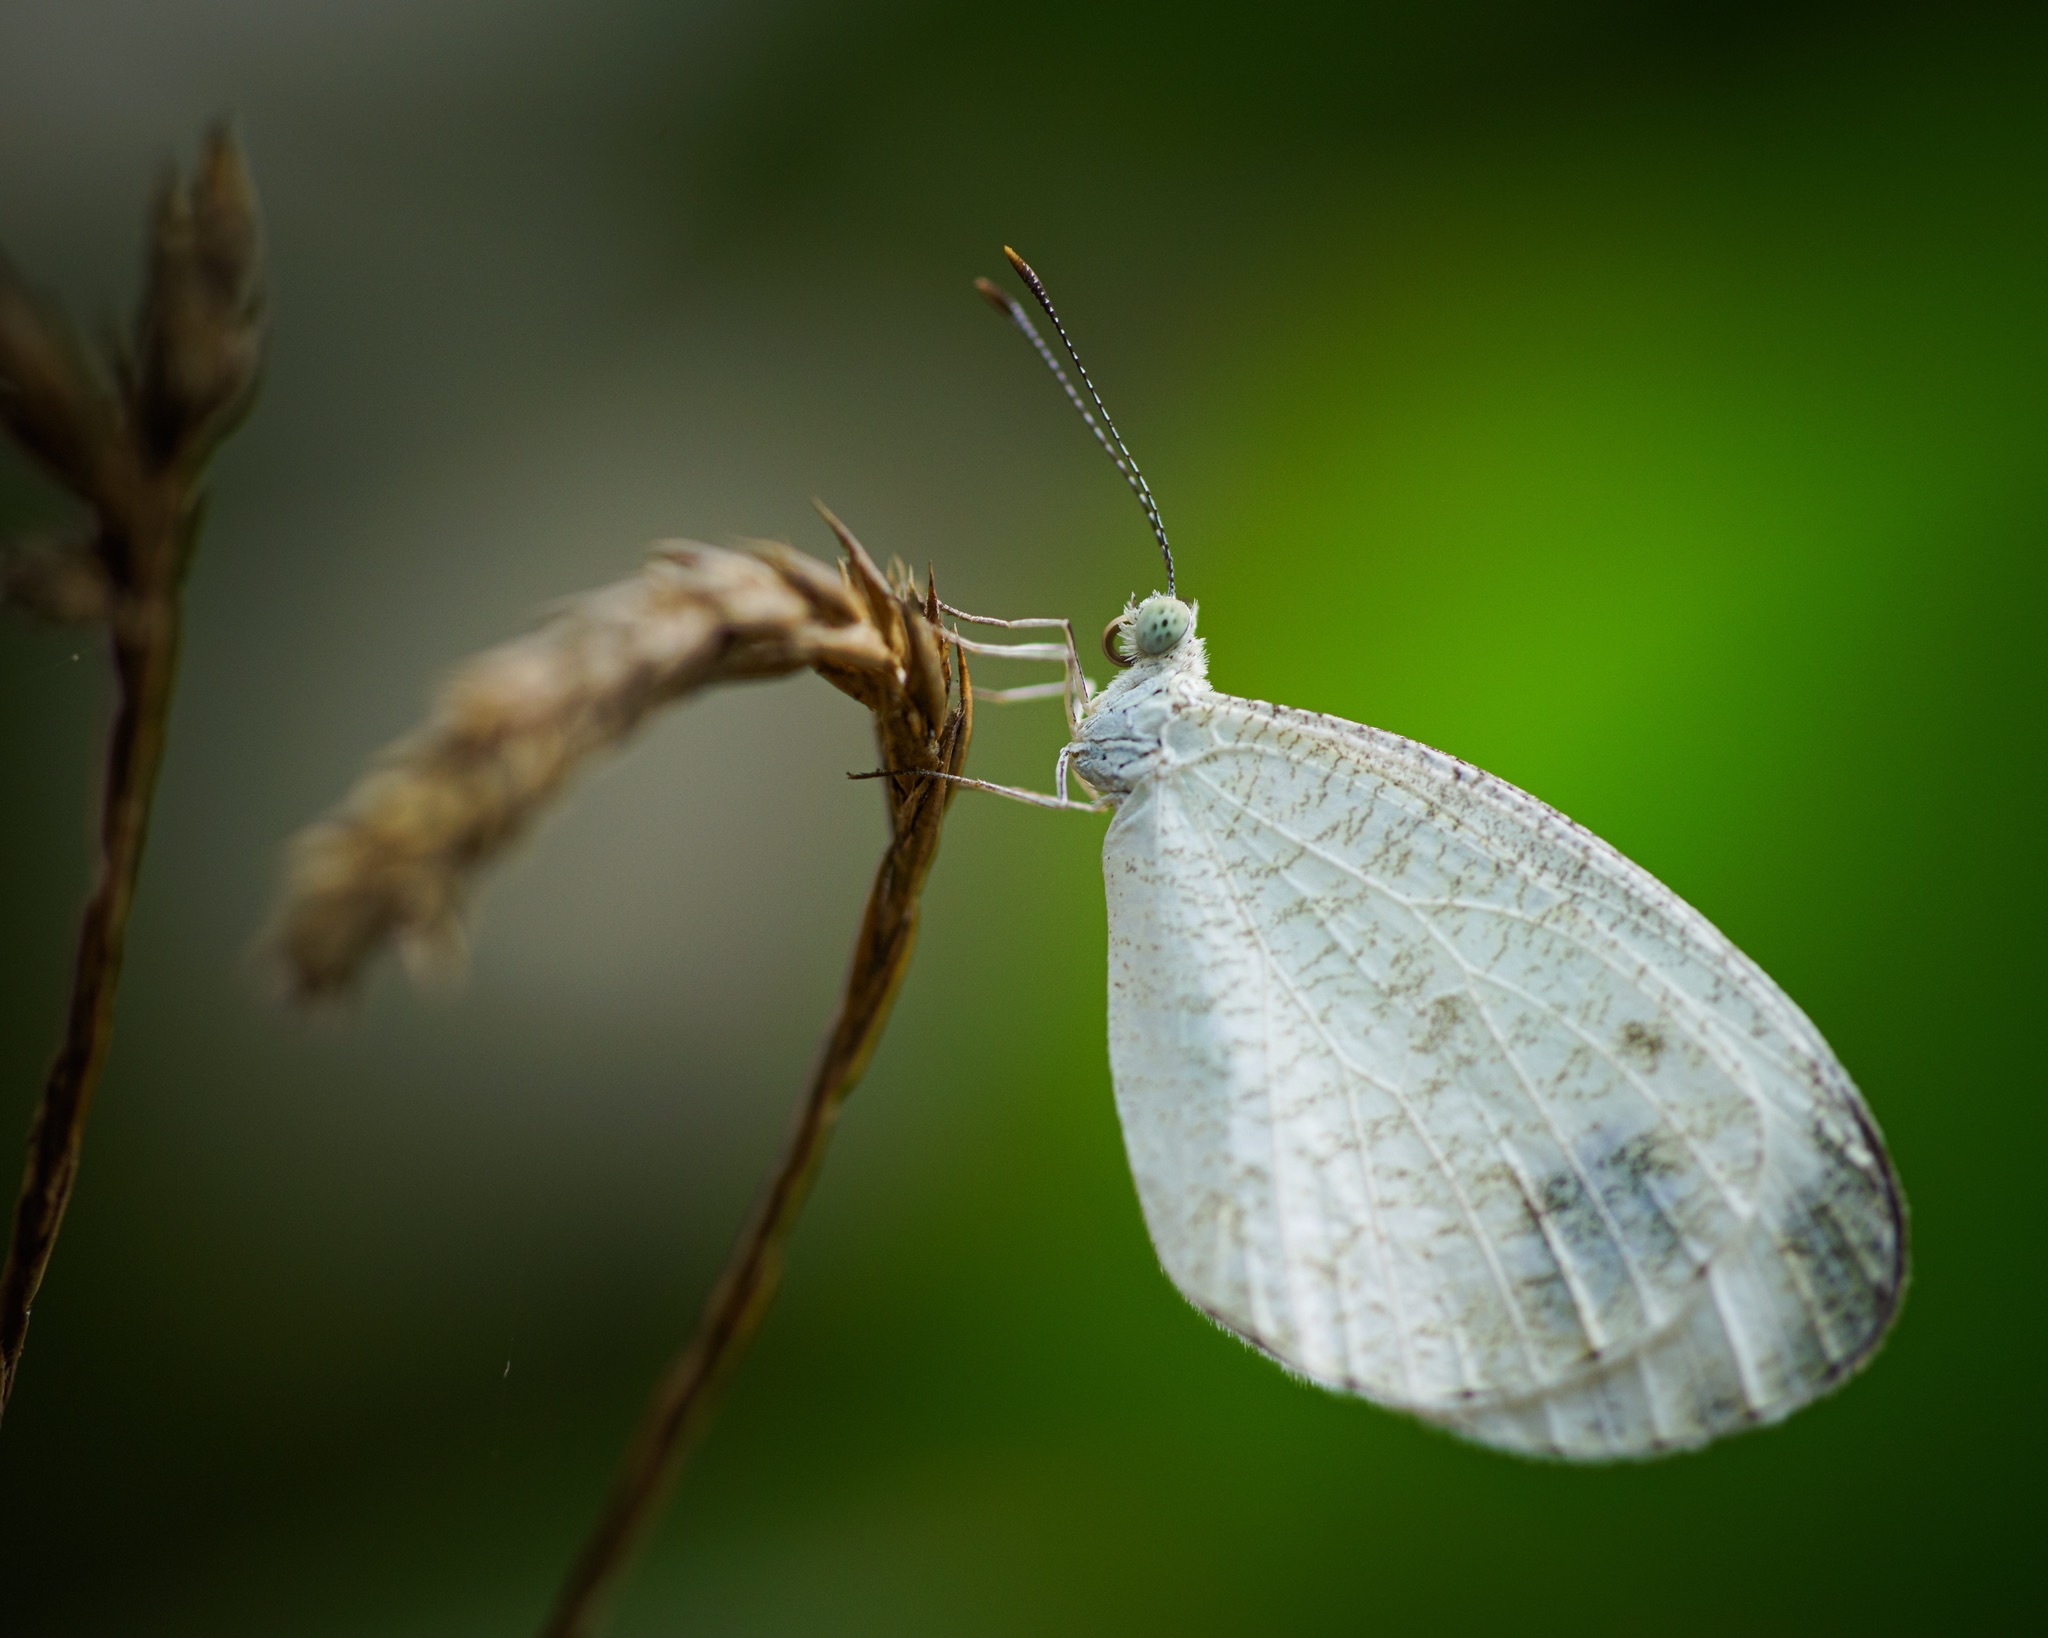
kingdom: Animalia
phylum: Arthropoda
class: Insecta
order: Lepidoptera
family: Pieridae
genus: Leptosia
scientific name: Leptosia nina
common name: Psyche
